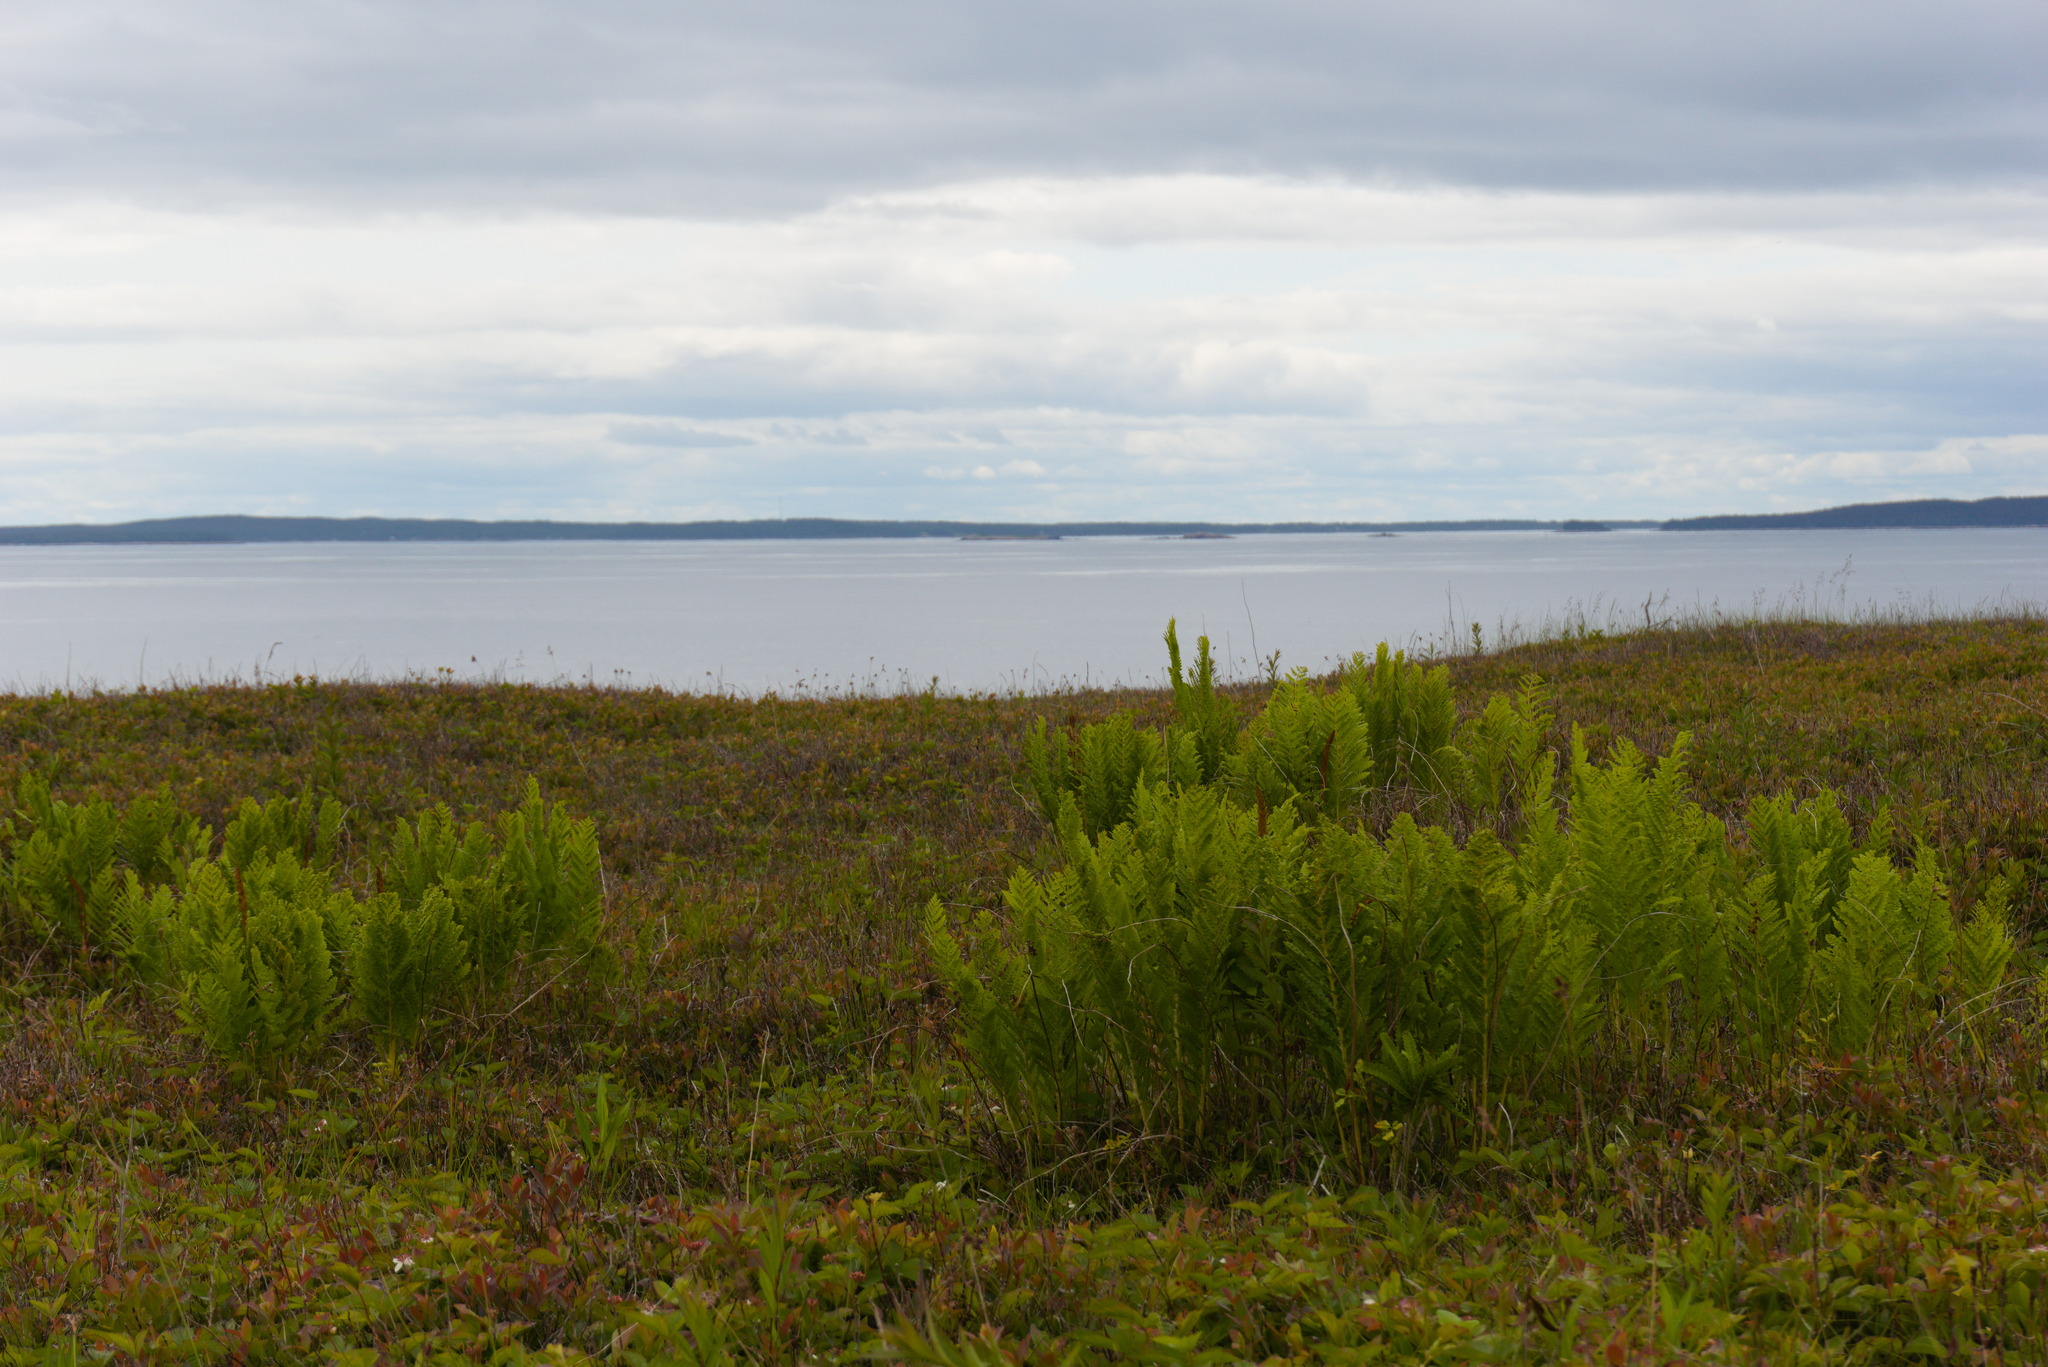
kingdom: Plantae
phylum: Tracheophyta
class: Polypodiopsida
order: Osmundales
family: Osmundaceae
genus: Osmundastrum
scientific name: Osmundastrum cinnamomeum
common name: Cinnamon fern
